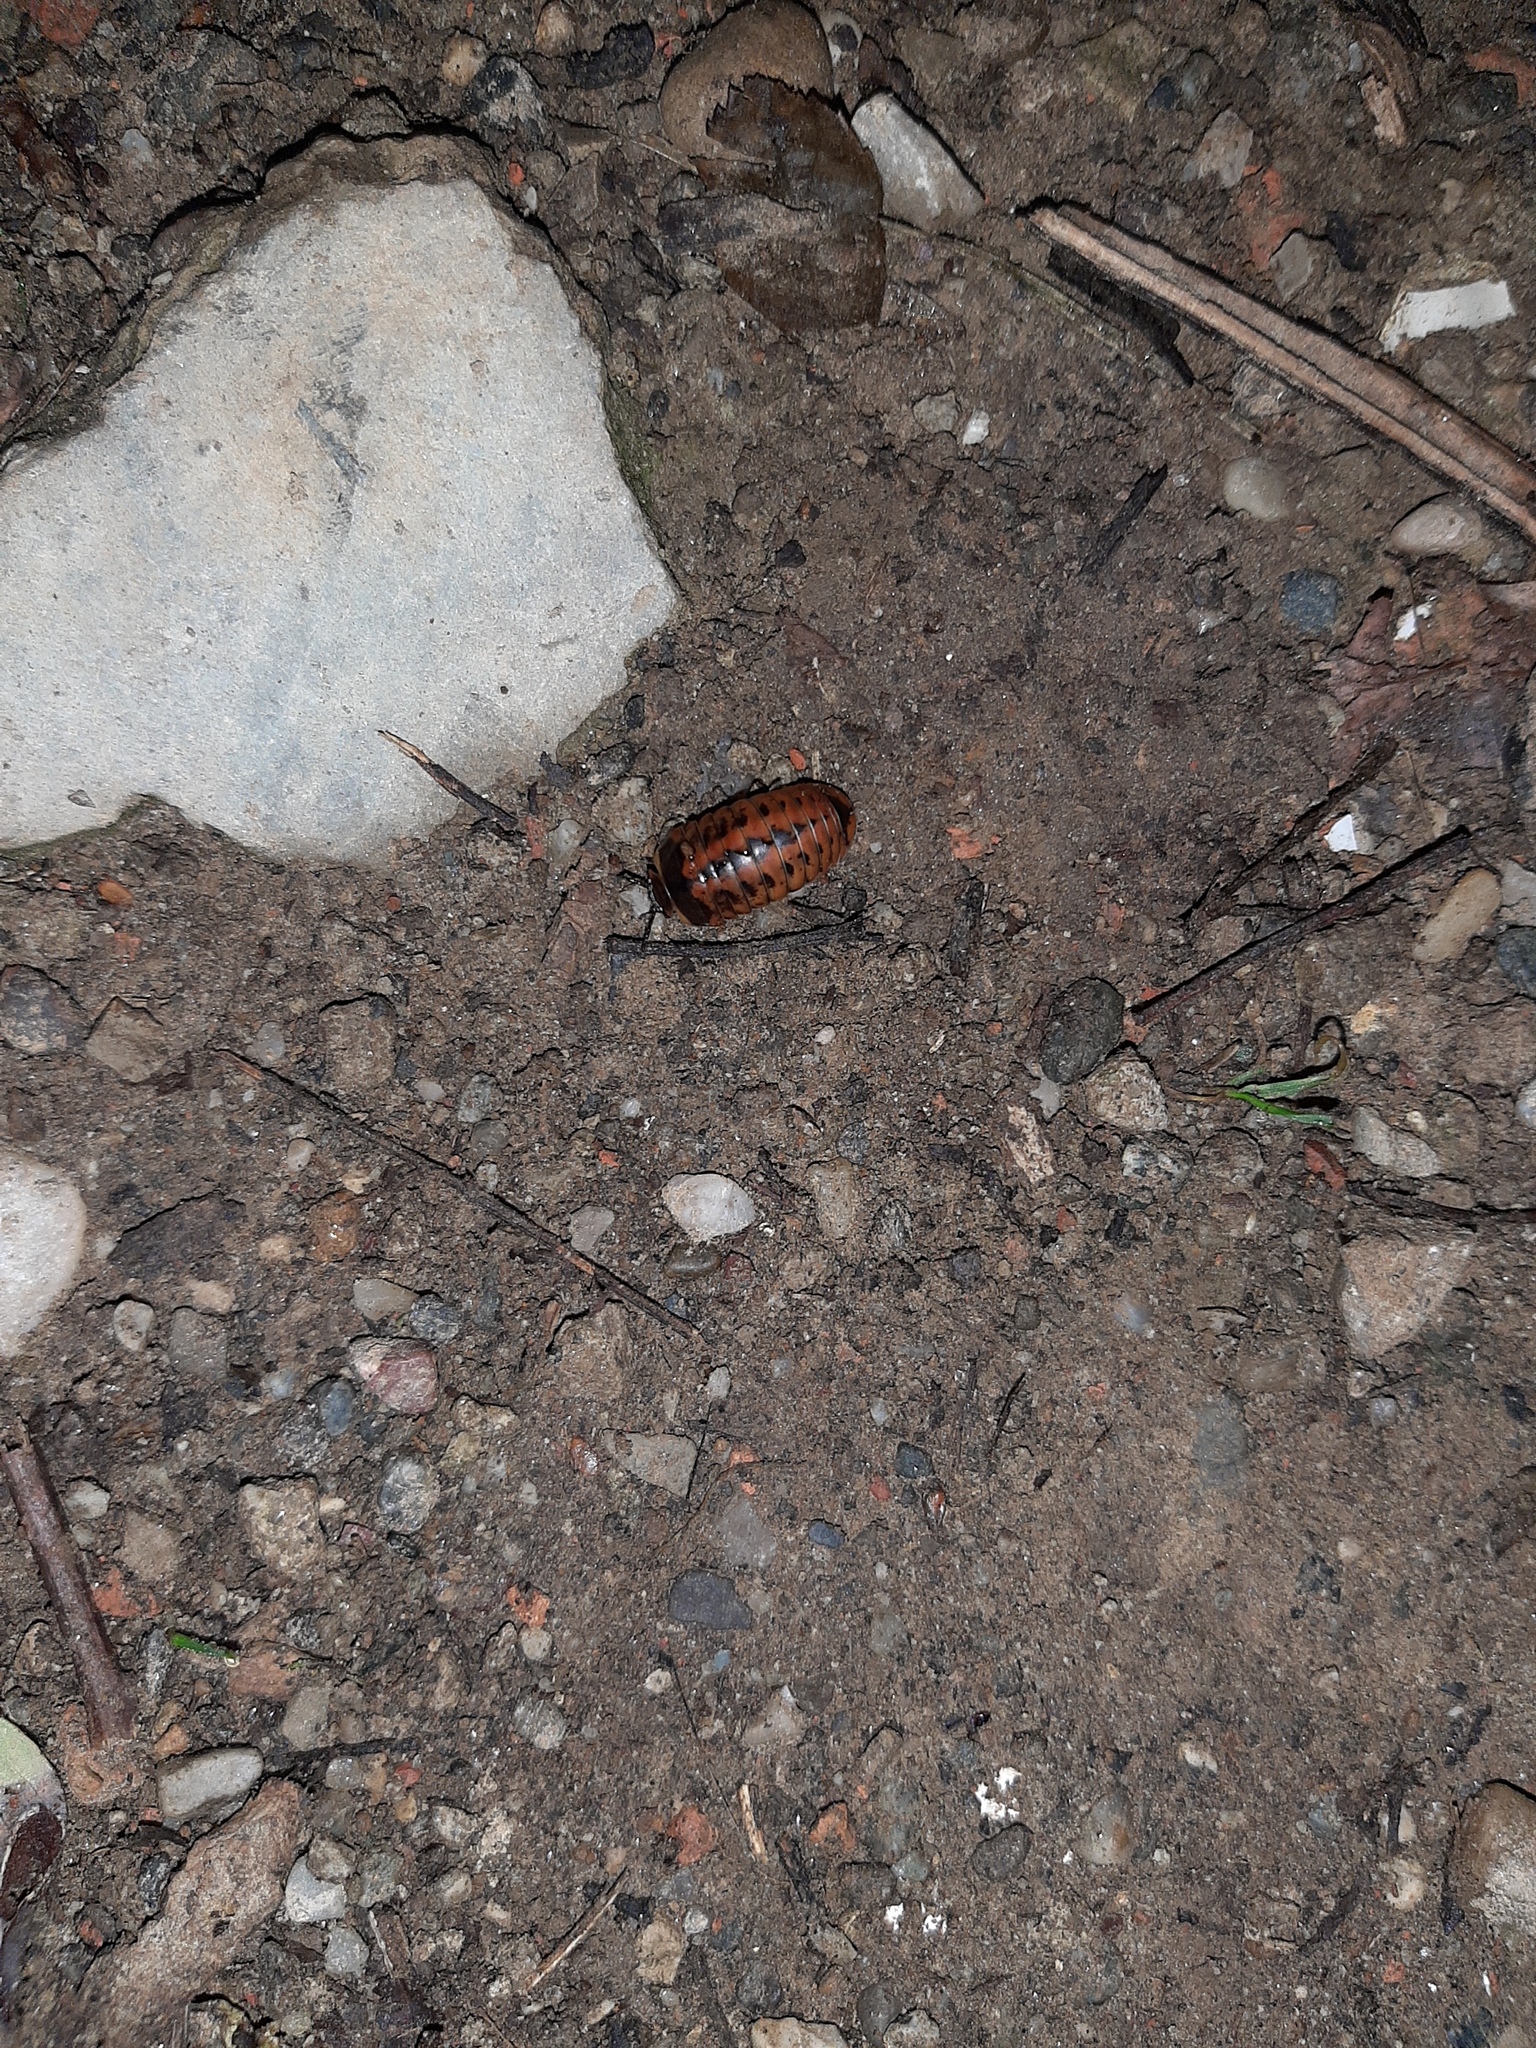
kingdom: Animalia
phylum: Arthropoda
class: Diplopoda
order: Glomerida
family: Glomeridae
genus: Glomeris
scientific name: Glomeris klugii
